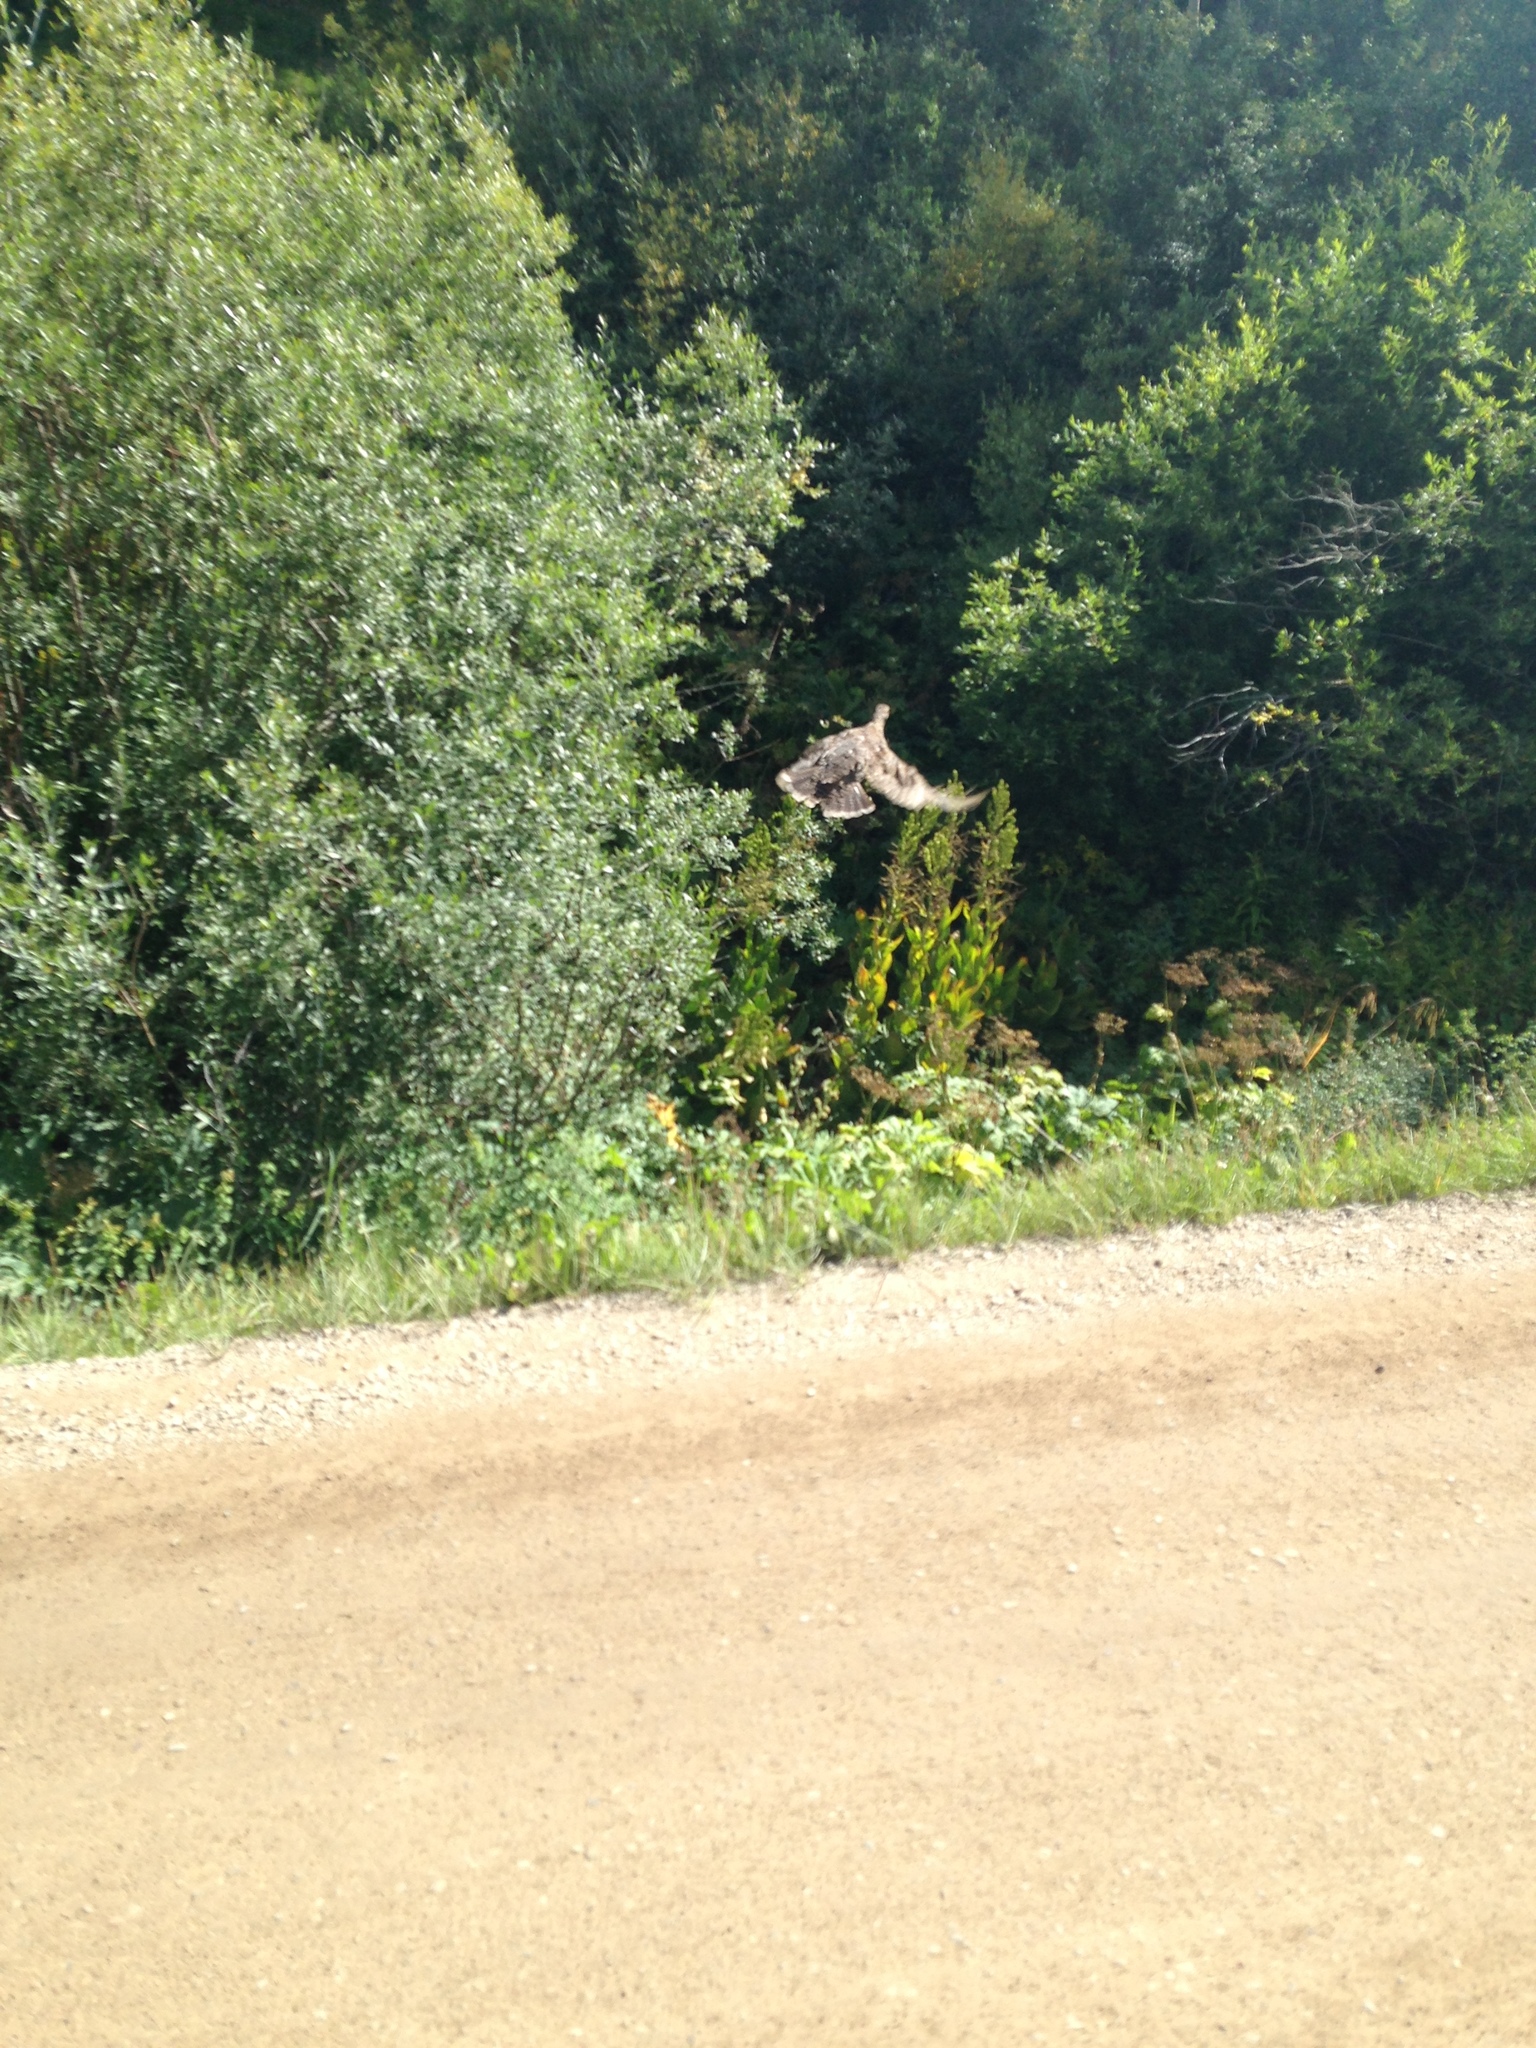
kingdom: Animalia
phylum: Chordata
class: Aves
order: Galliformes
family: Phasianidae
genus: Dendragapus
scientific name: Dendragapus obscurus
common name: Dusky grouse
